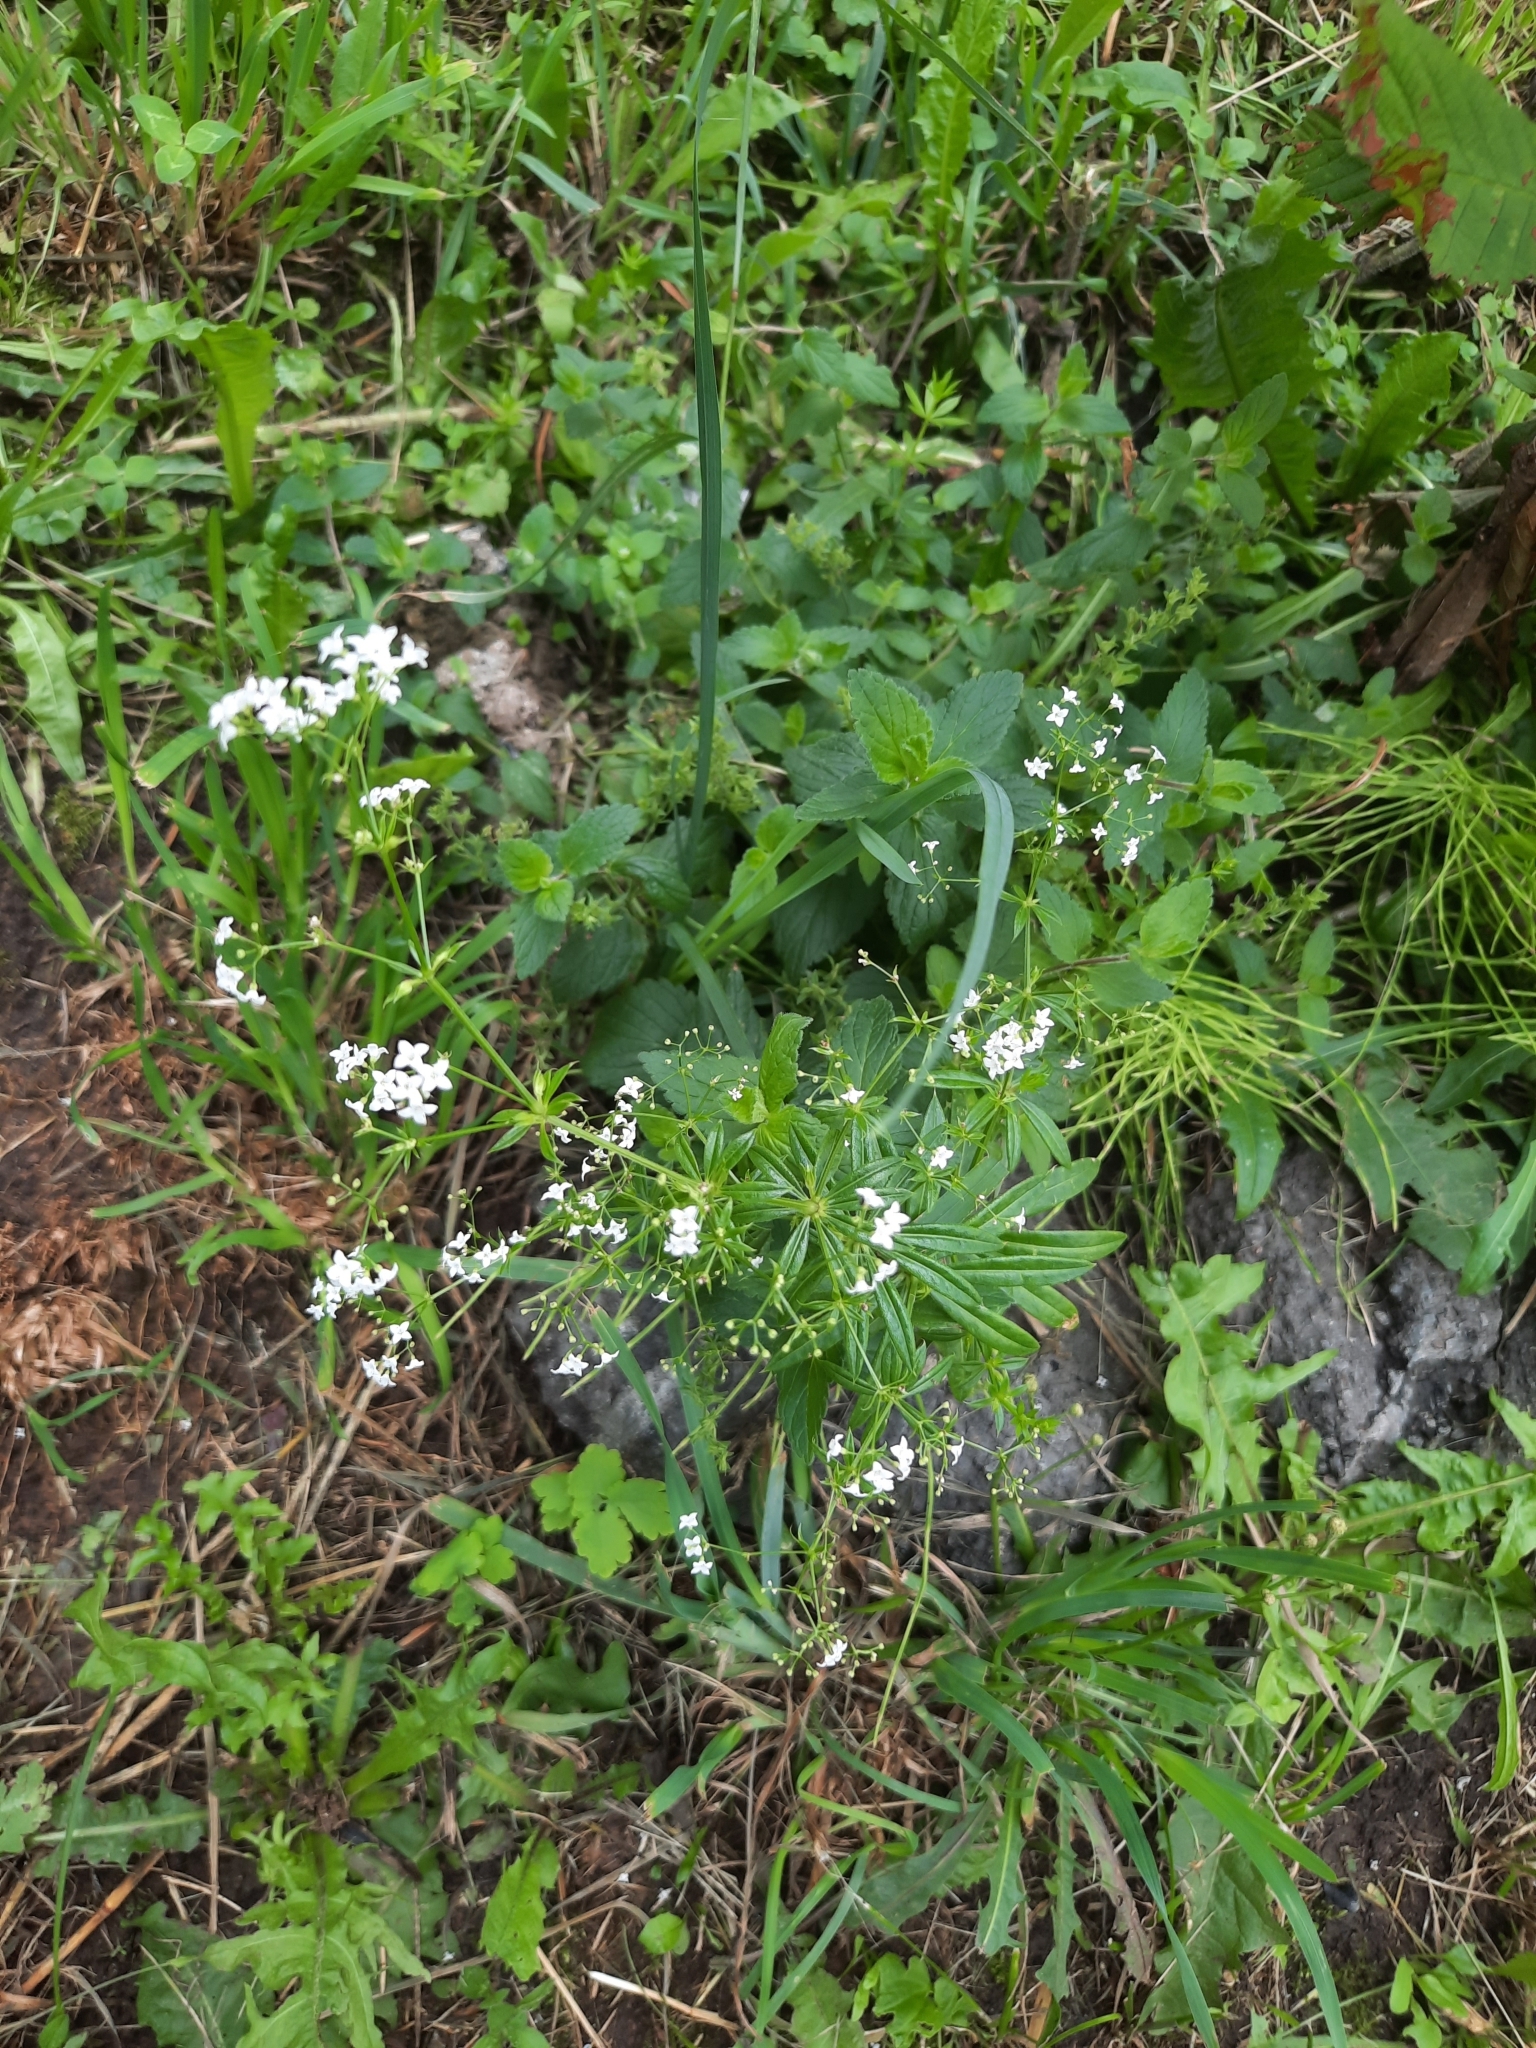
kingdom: Plantae
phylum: Tracheophyta
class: Magnoliopsida
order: Gentianales
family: Rubiaceae
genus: Galium
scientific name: Galium rivale
